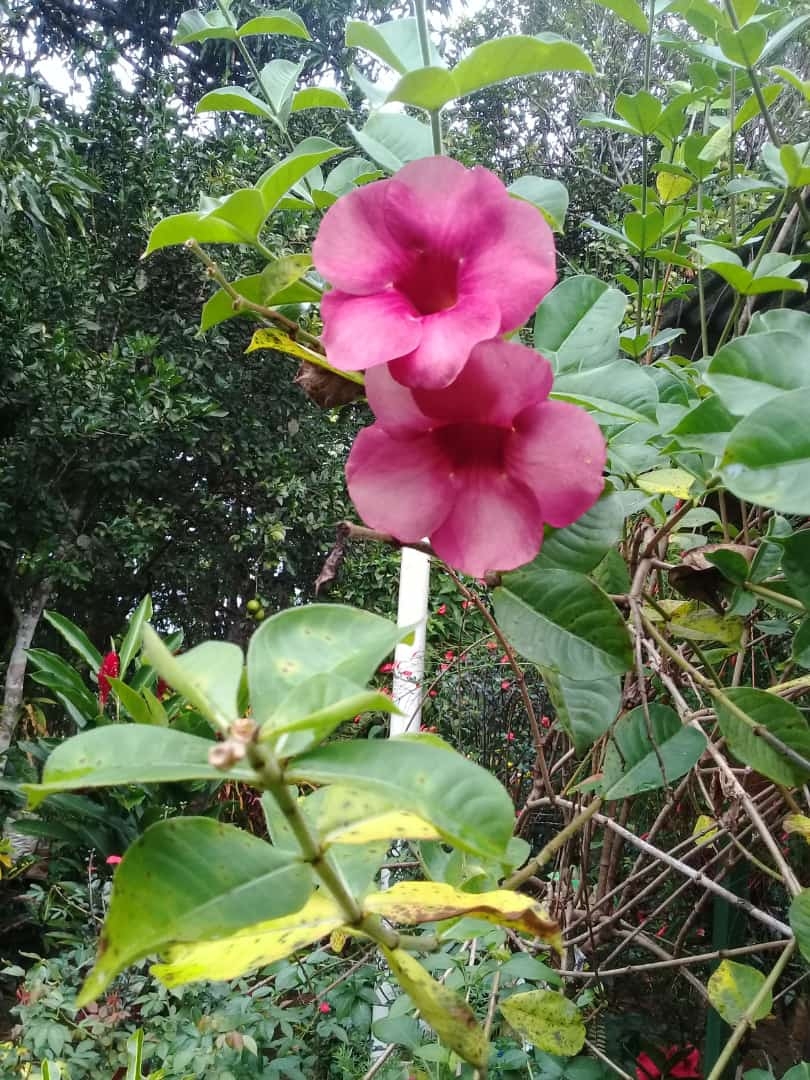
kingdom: Plantae
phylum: Tracheophyta
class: Magnoliopsida
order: Gentianales
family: Apocynaceae
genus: Allamanda
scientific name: Allamanda blanchetii
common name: Purple allamanda
